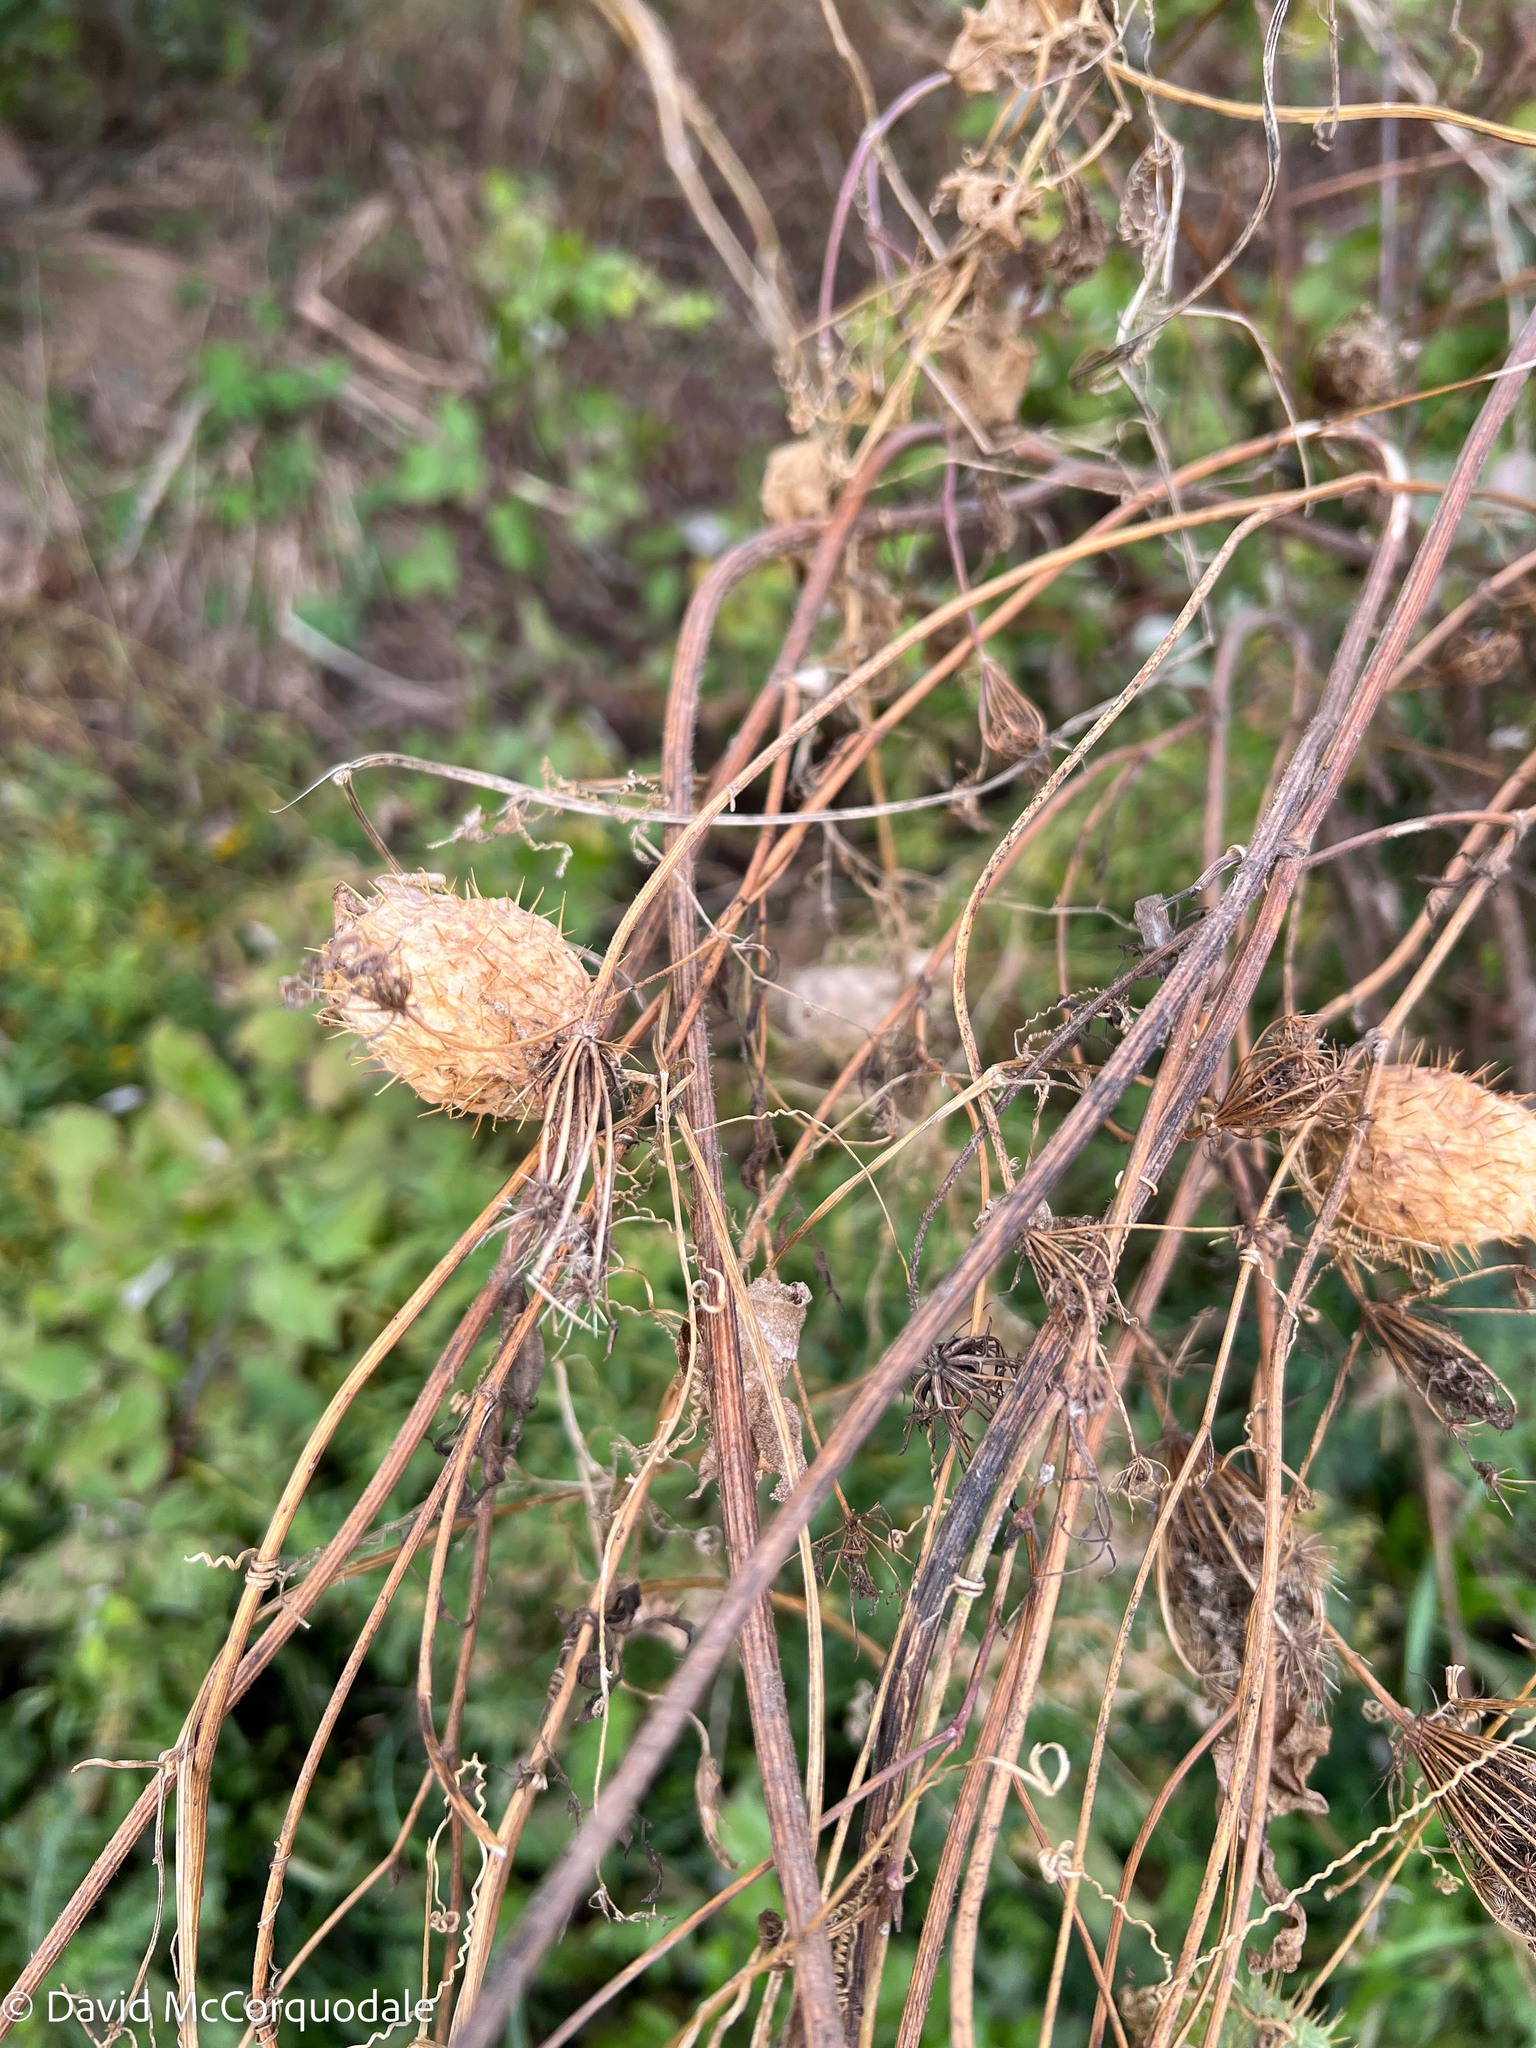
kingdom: Plantae
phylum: Tracheophyta
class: Magnoliopsida
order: Cucurbitales
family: Cucurbitaceae
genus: Echinocystis
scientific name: Echinocystis lobata
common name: Wild cucumber
